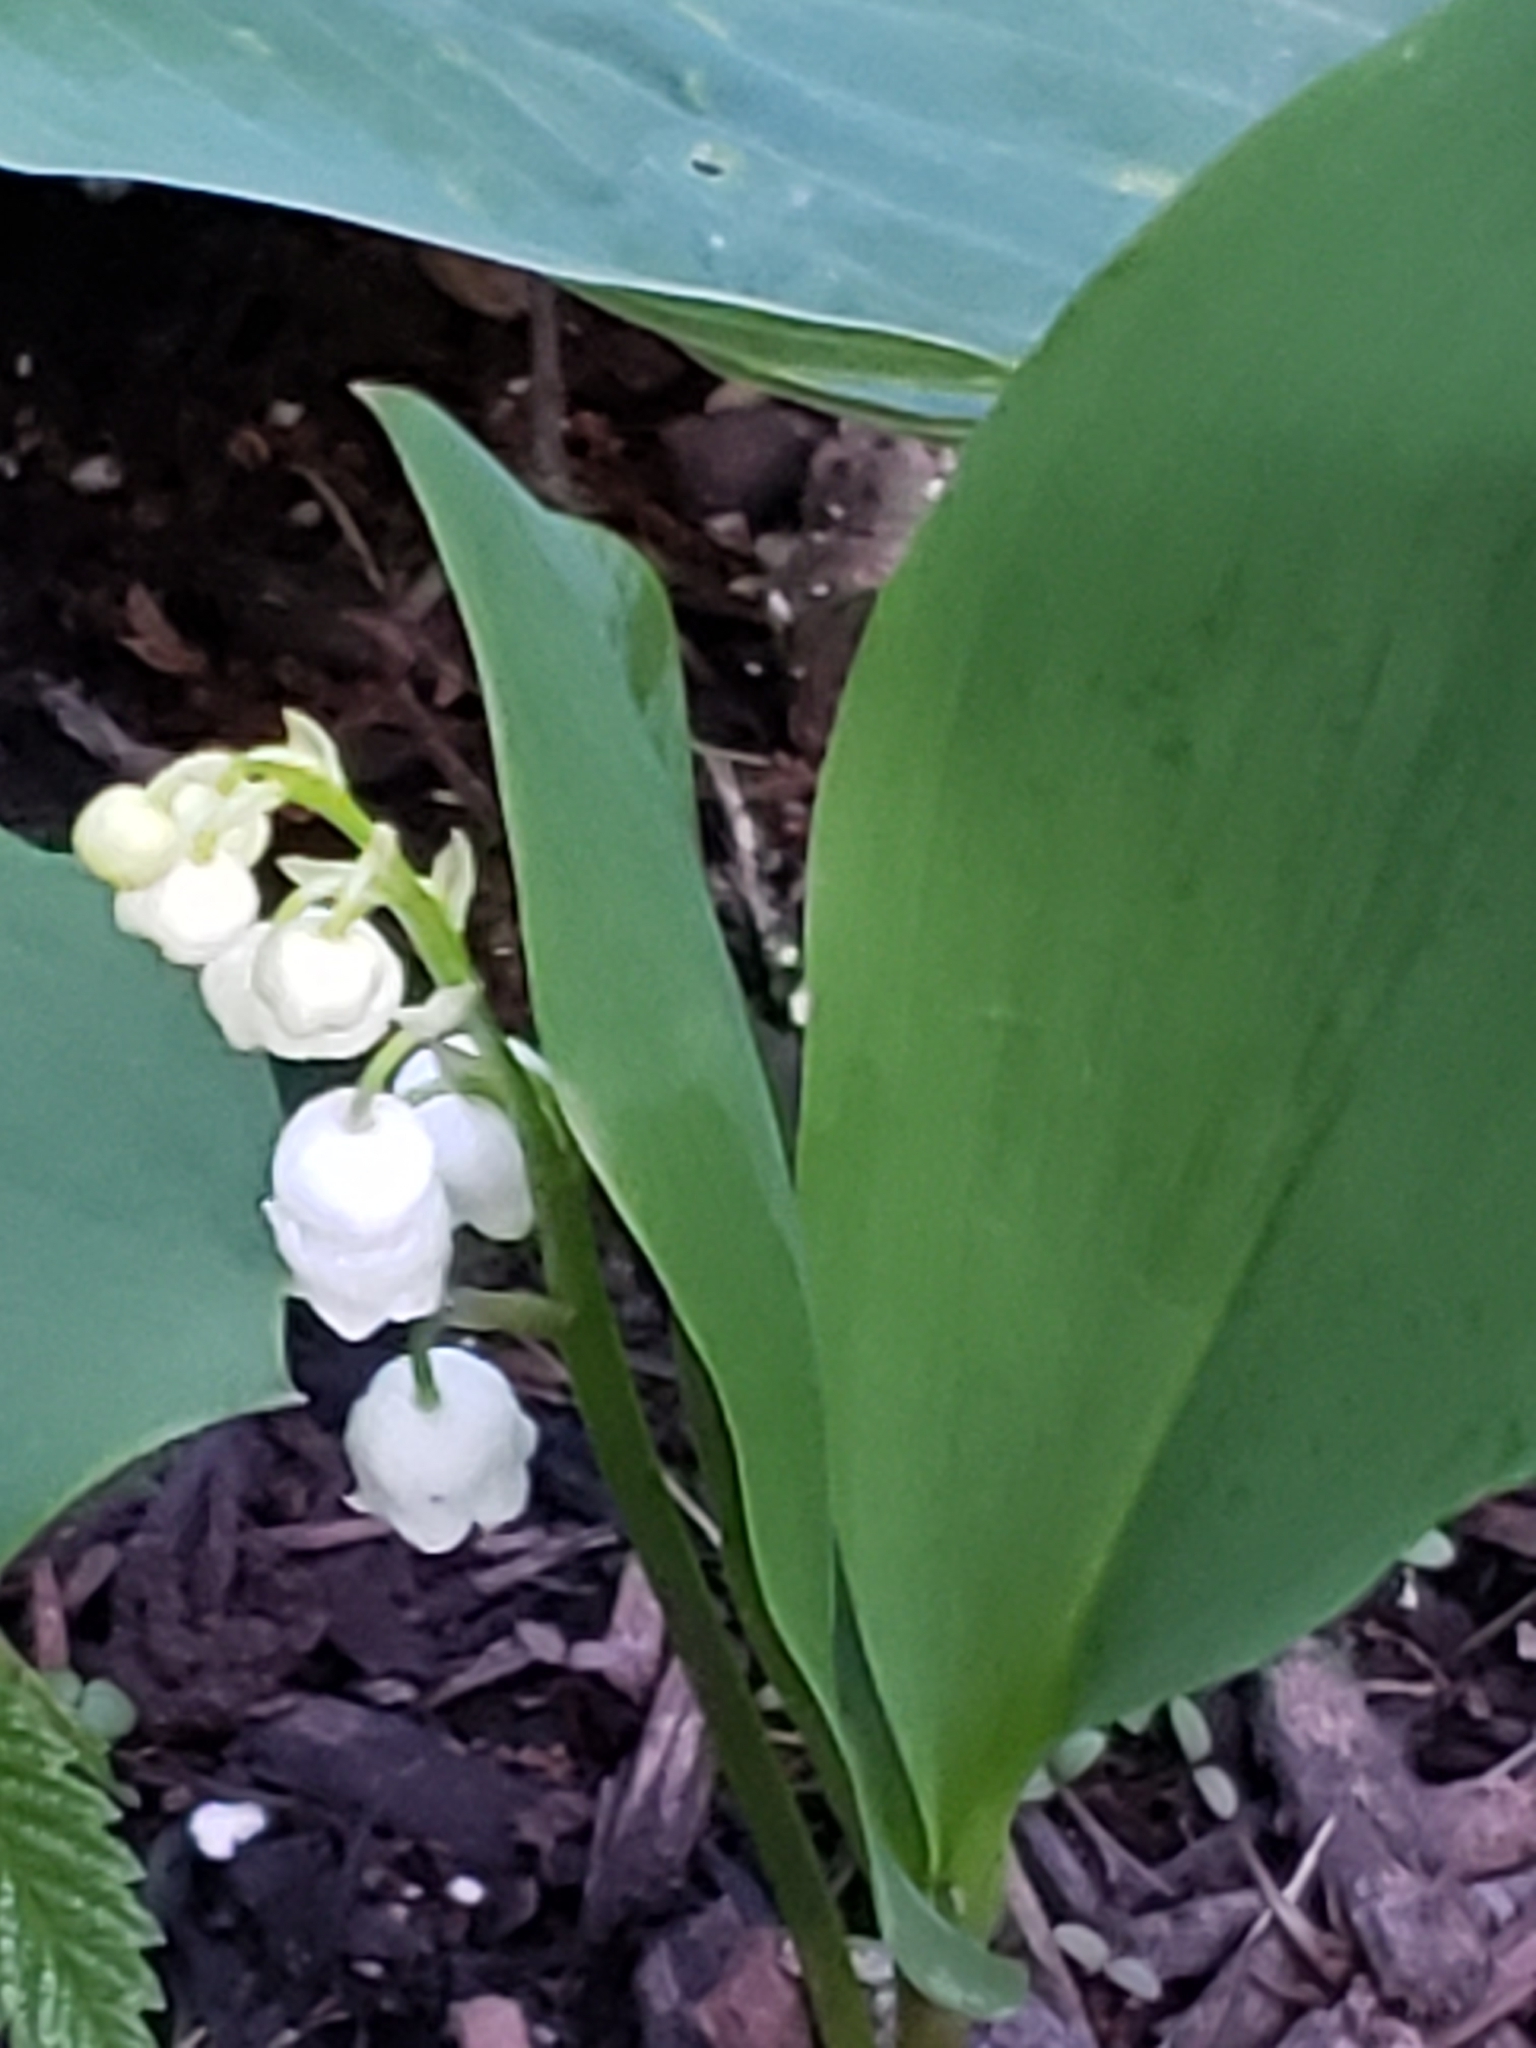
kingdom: Plantae
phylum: Tracheophyta
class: Liliopsida
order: Asparagales
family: Asparagaceae
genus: Convallaria
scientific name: Convallaria majalis
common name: Lily-of-the-valley
